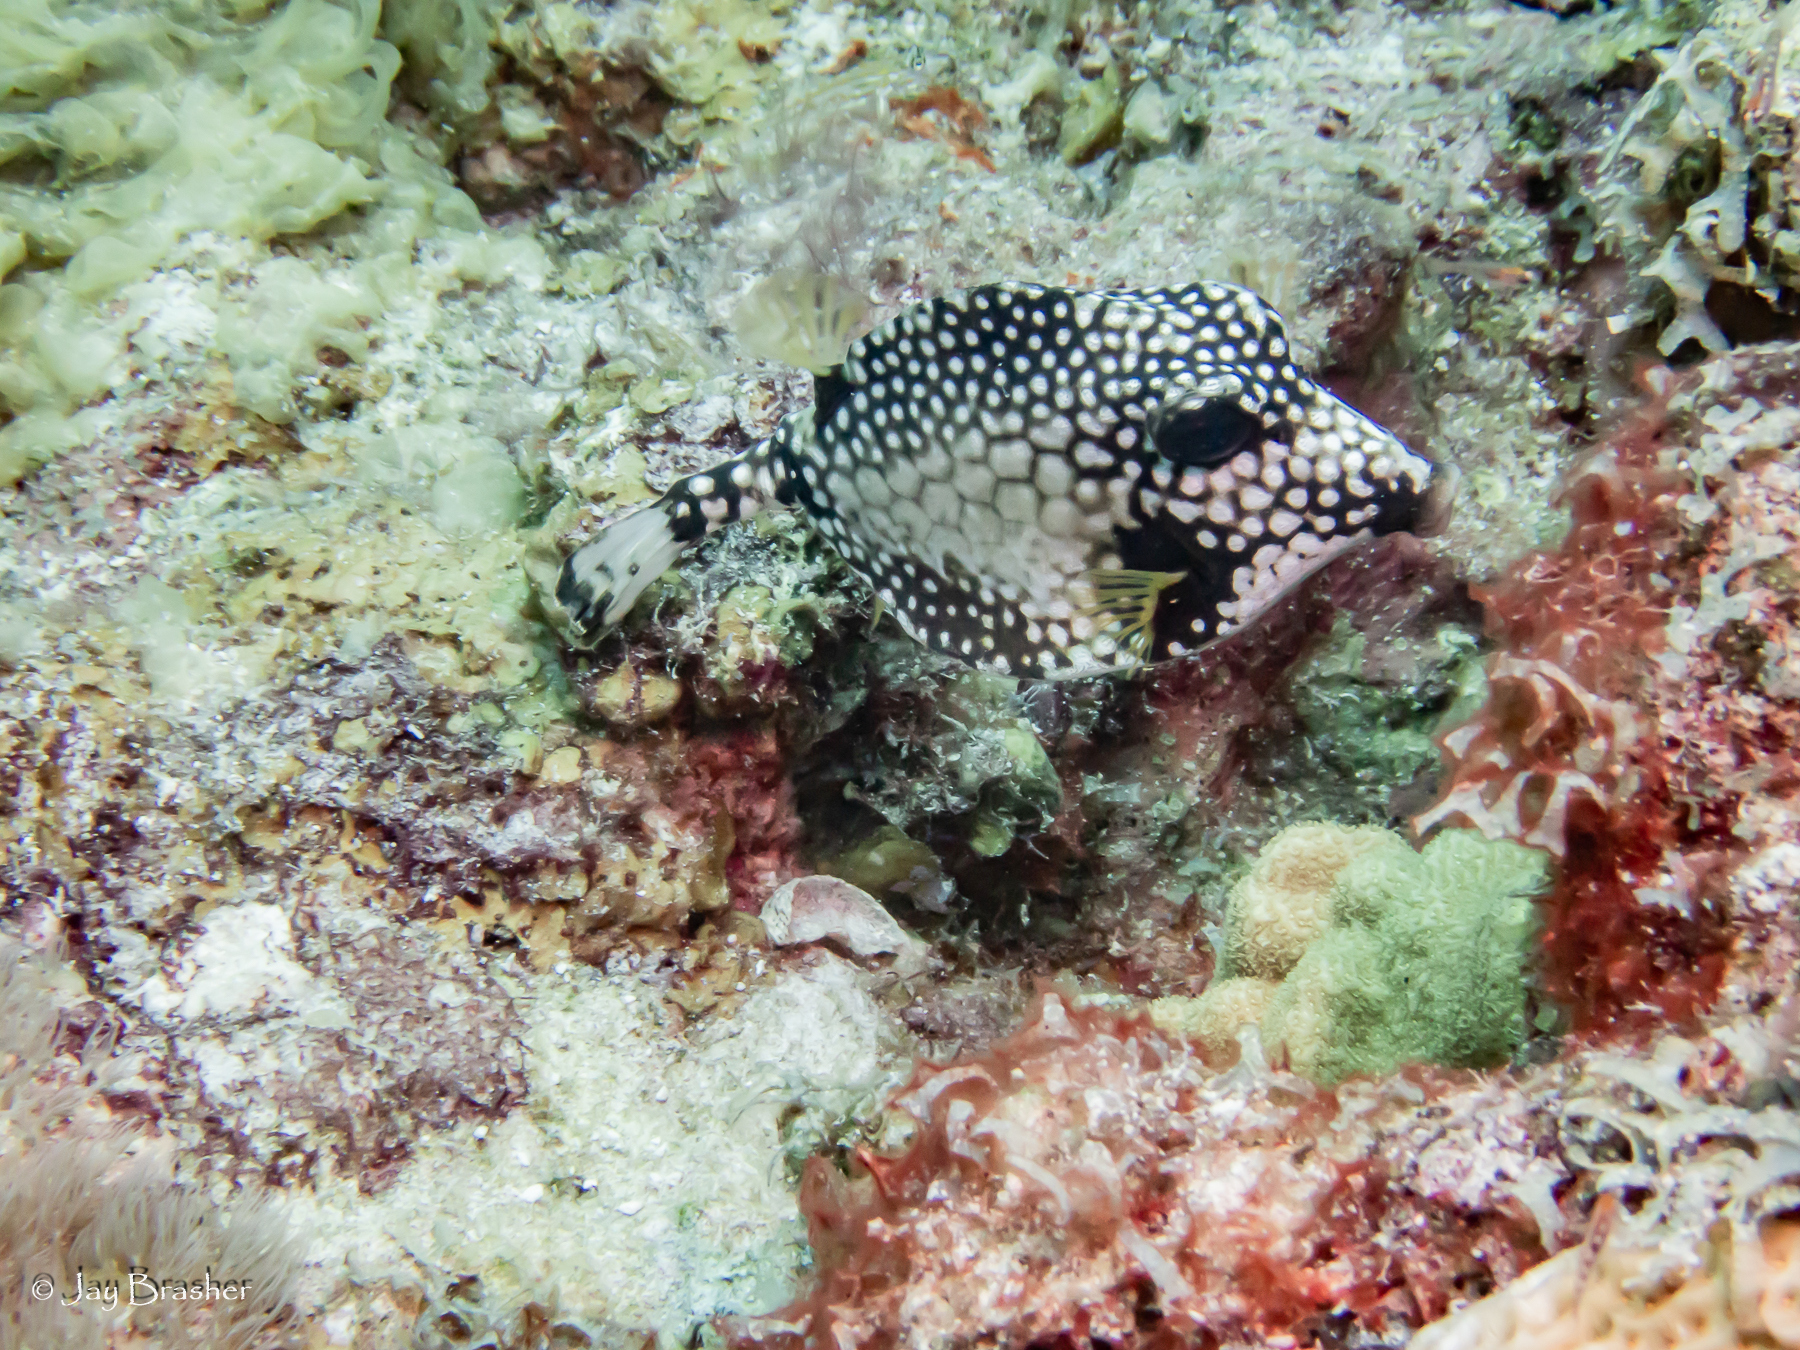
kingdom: Animalia
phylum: Chordata
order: Tetraodontiformes
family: Ostraciidae
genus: Lactophrys
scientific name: Lactophrys triqueter
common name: Smooth trunkfish
